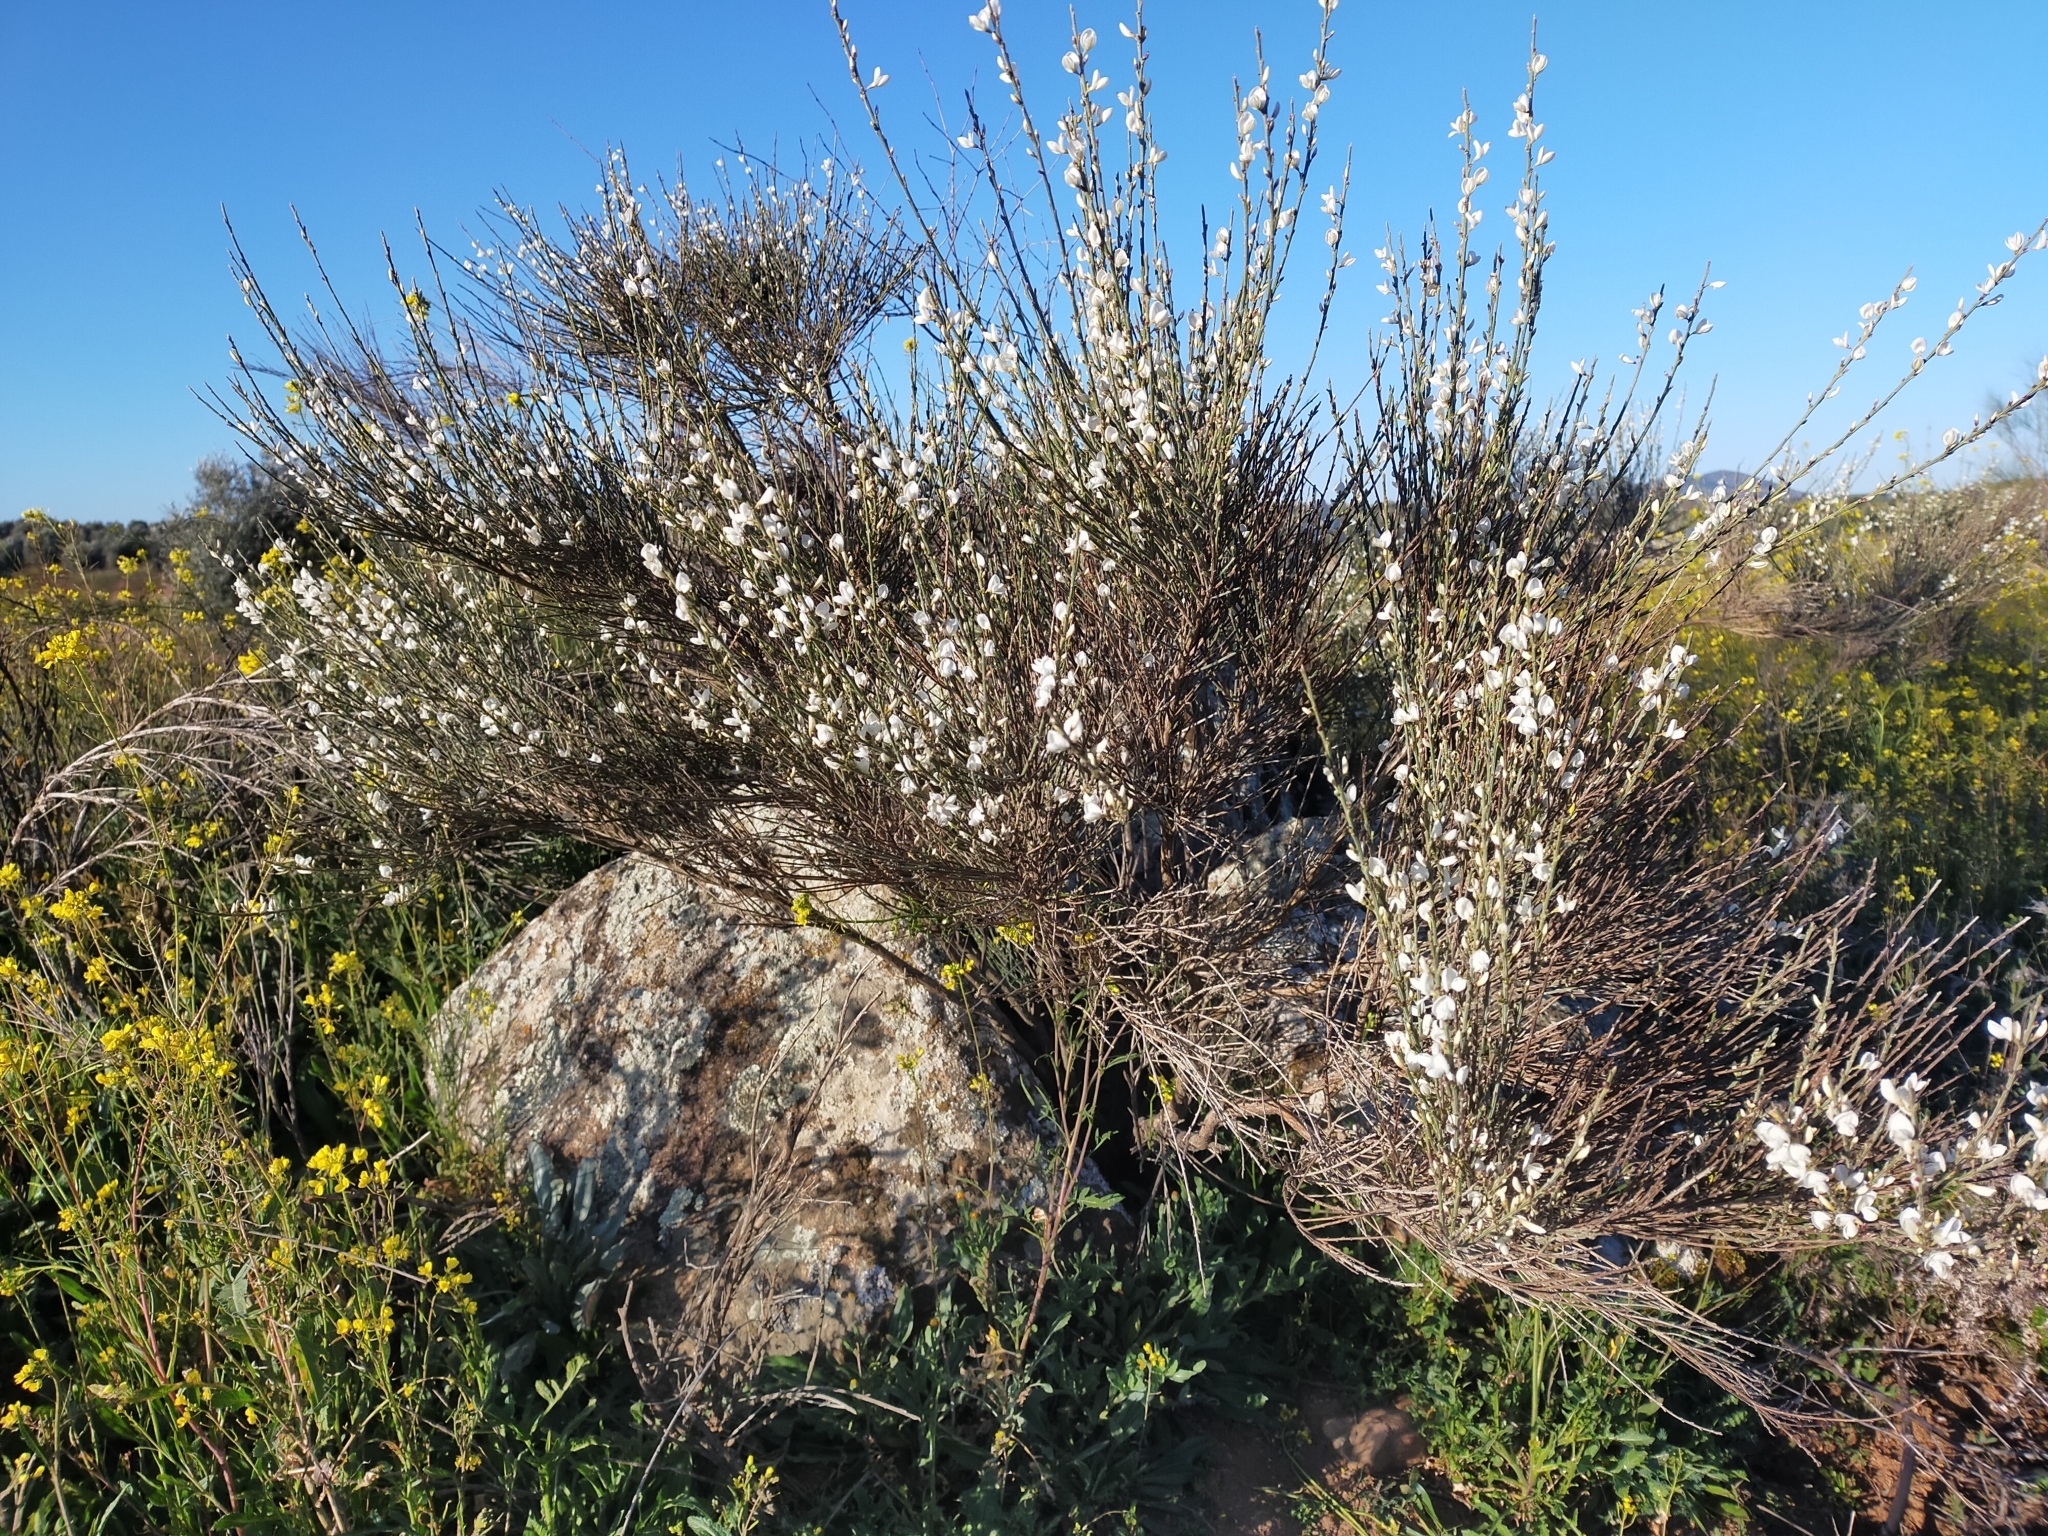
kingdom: Plantae
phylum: Tracheophyta
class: Magnoliopsida
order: Fabales
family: Fabaceae
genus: Cytisus
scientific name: Cytisus multiflorus
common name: White broom
